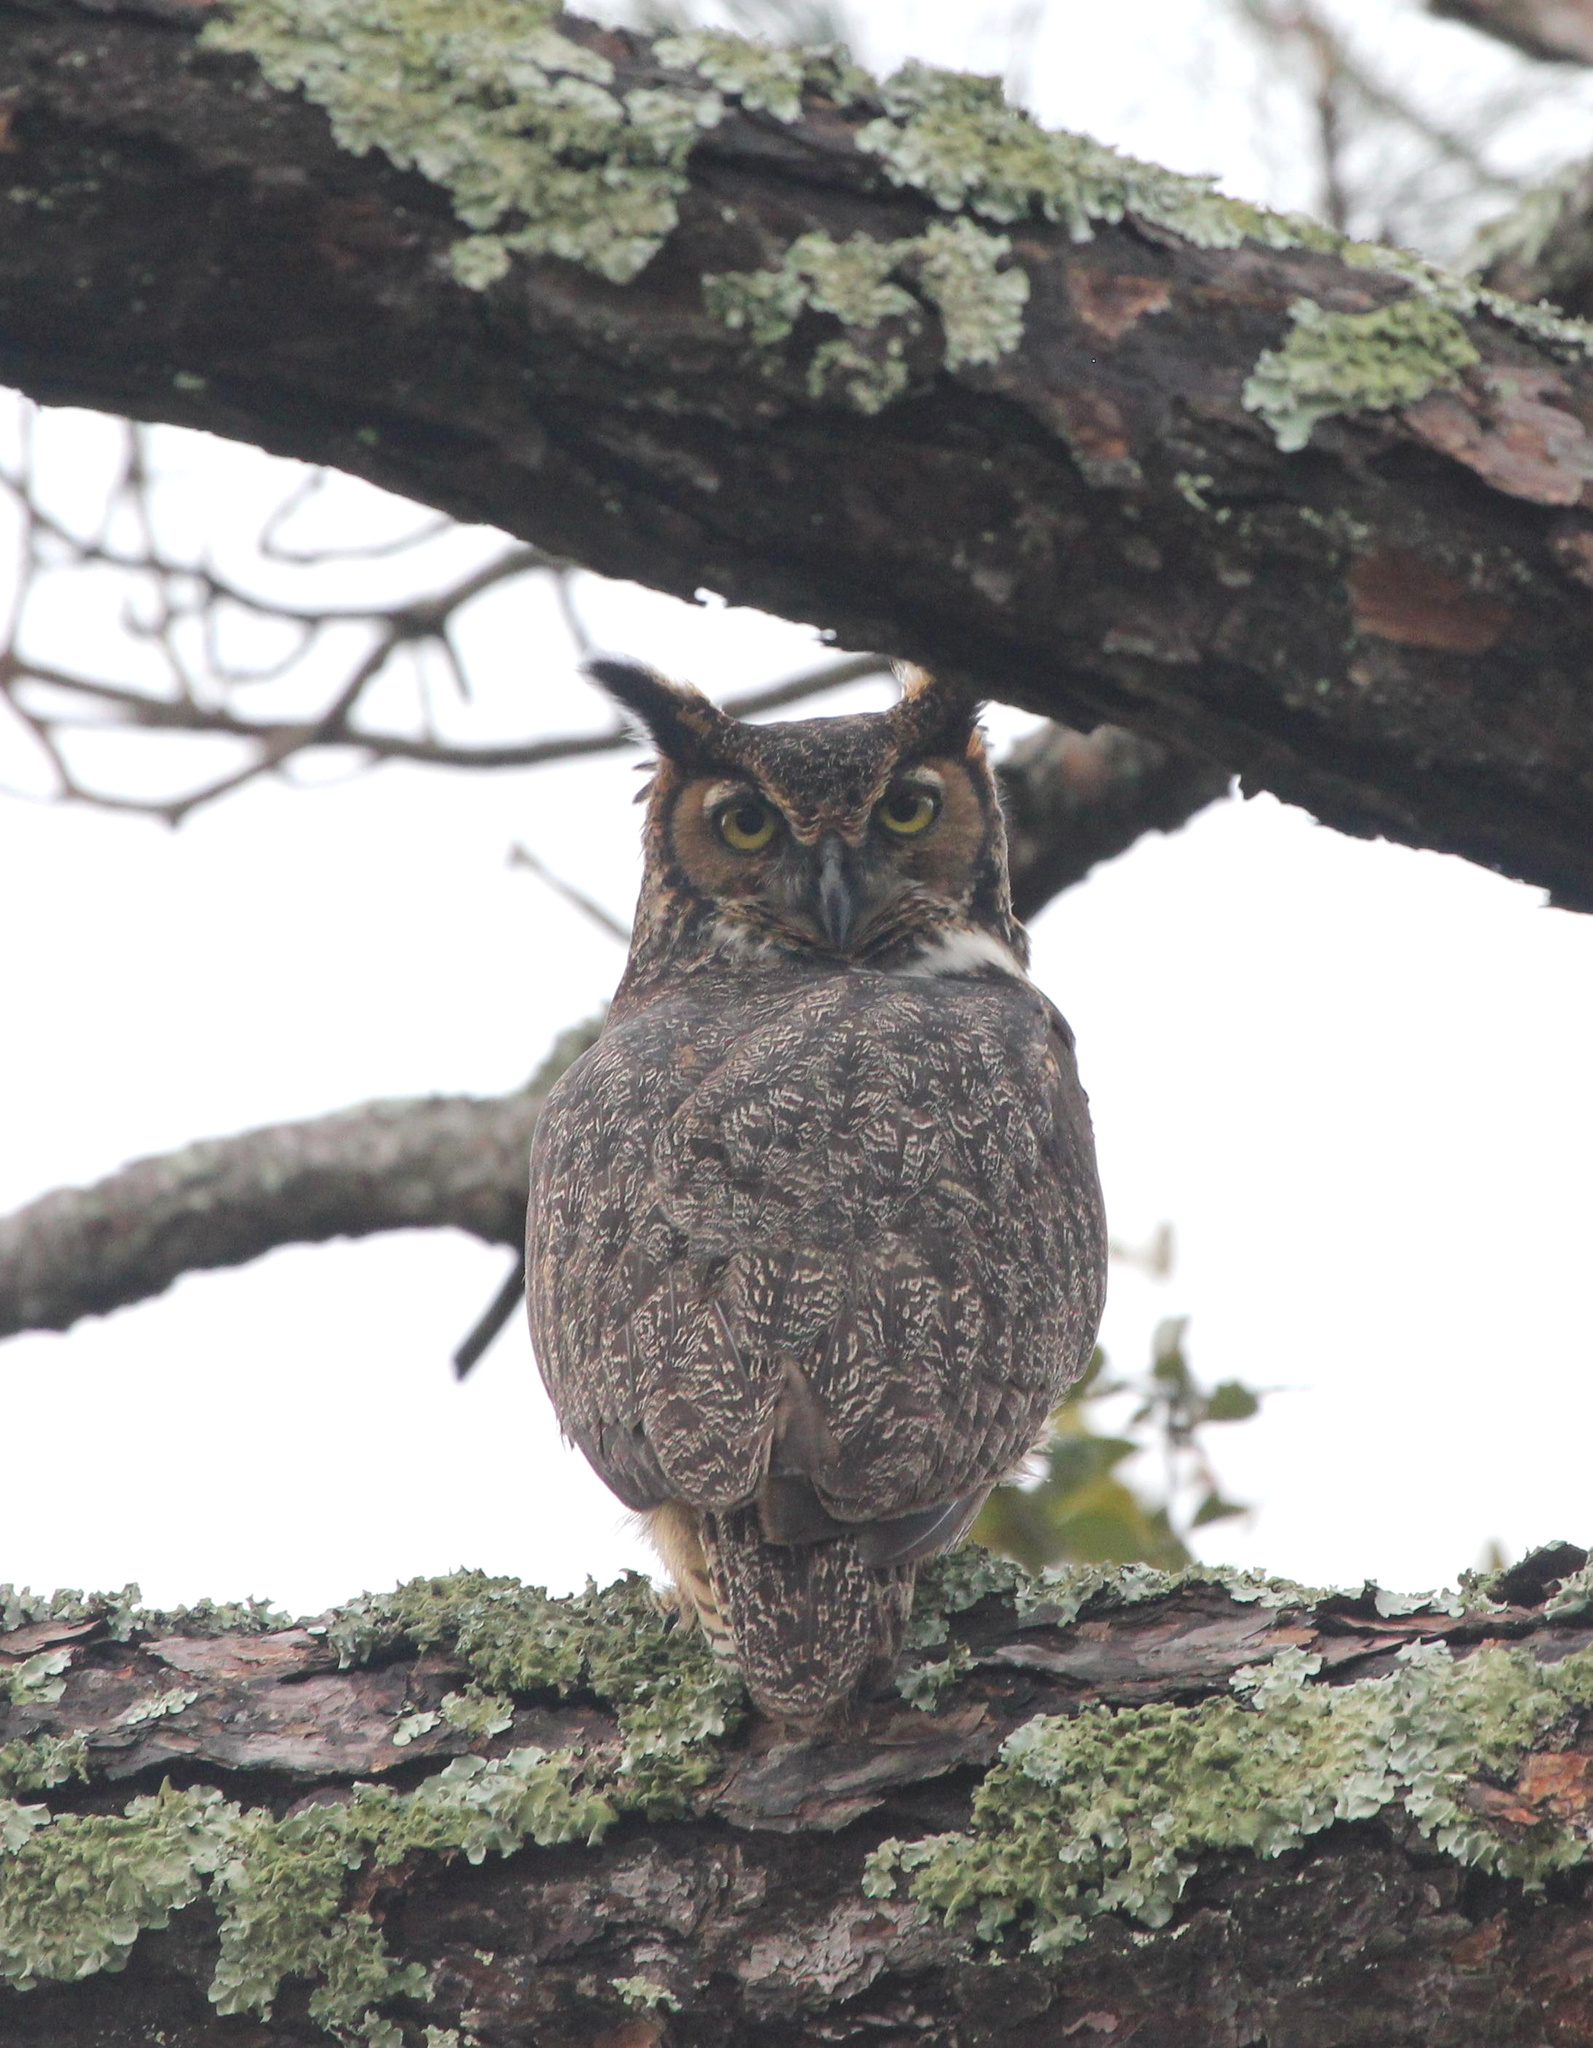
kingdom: Animalia
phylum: Chordata
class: Aves
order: Strigiformes
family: Strigidae
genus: Bubo
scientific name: Bubo virginianus
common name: Great horned owl
